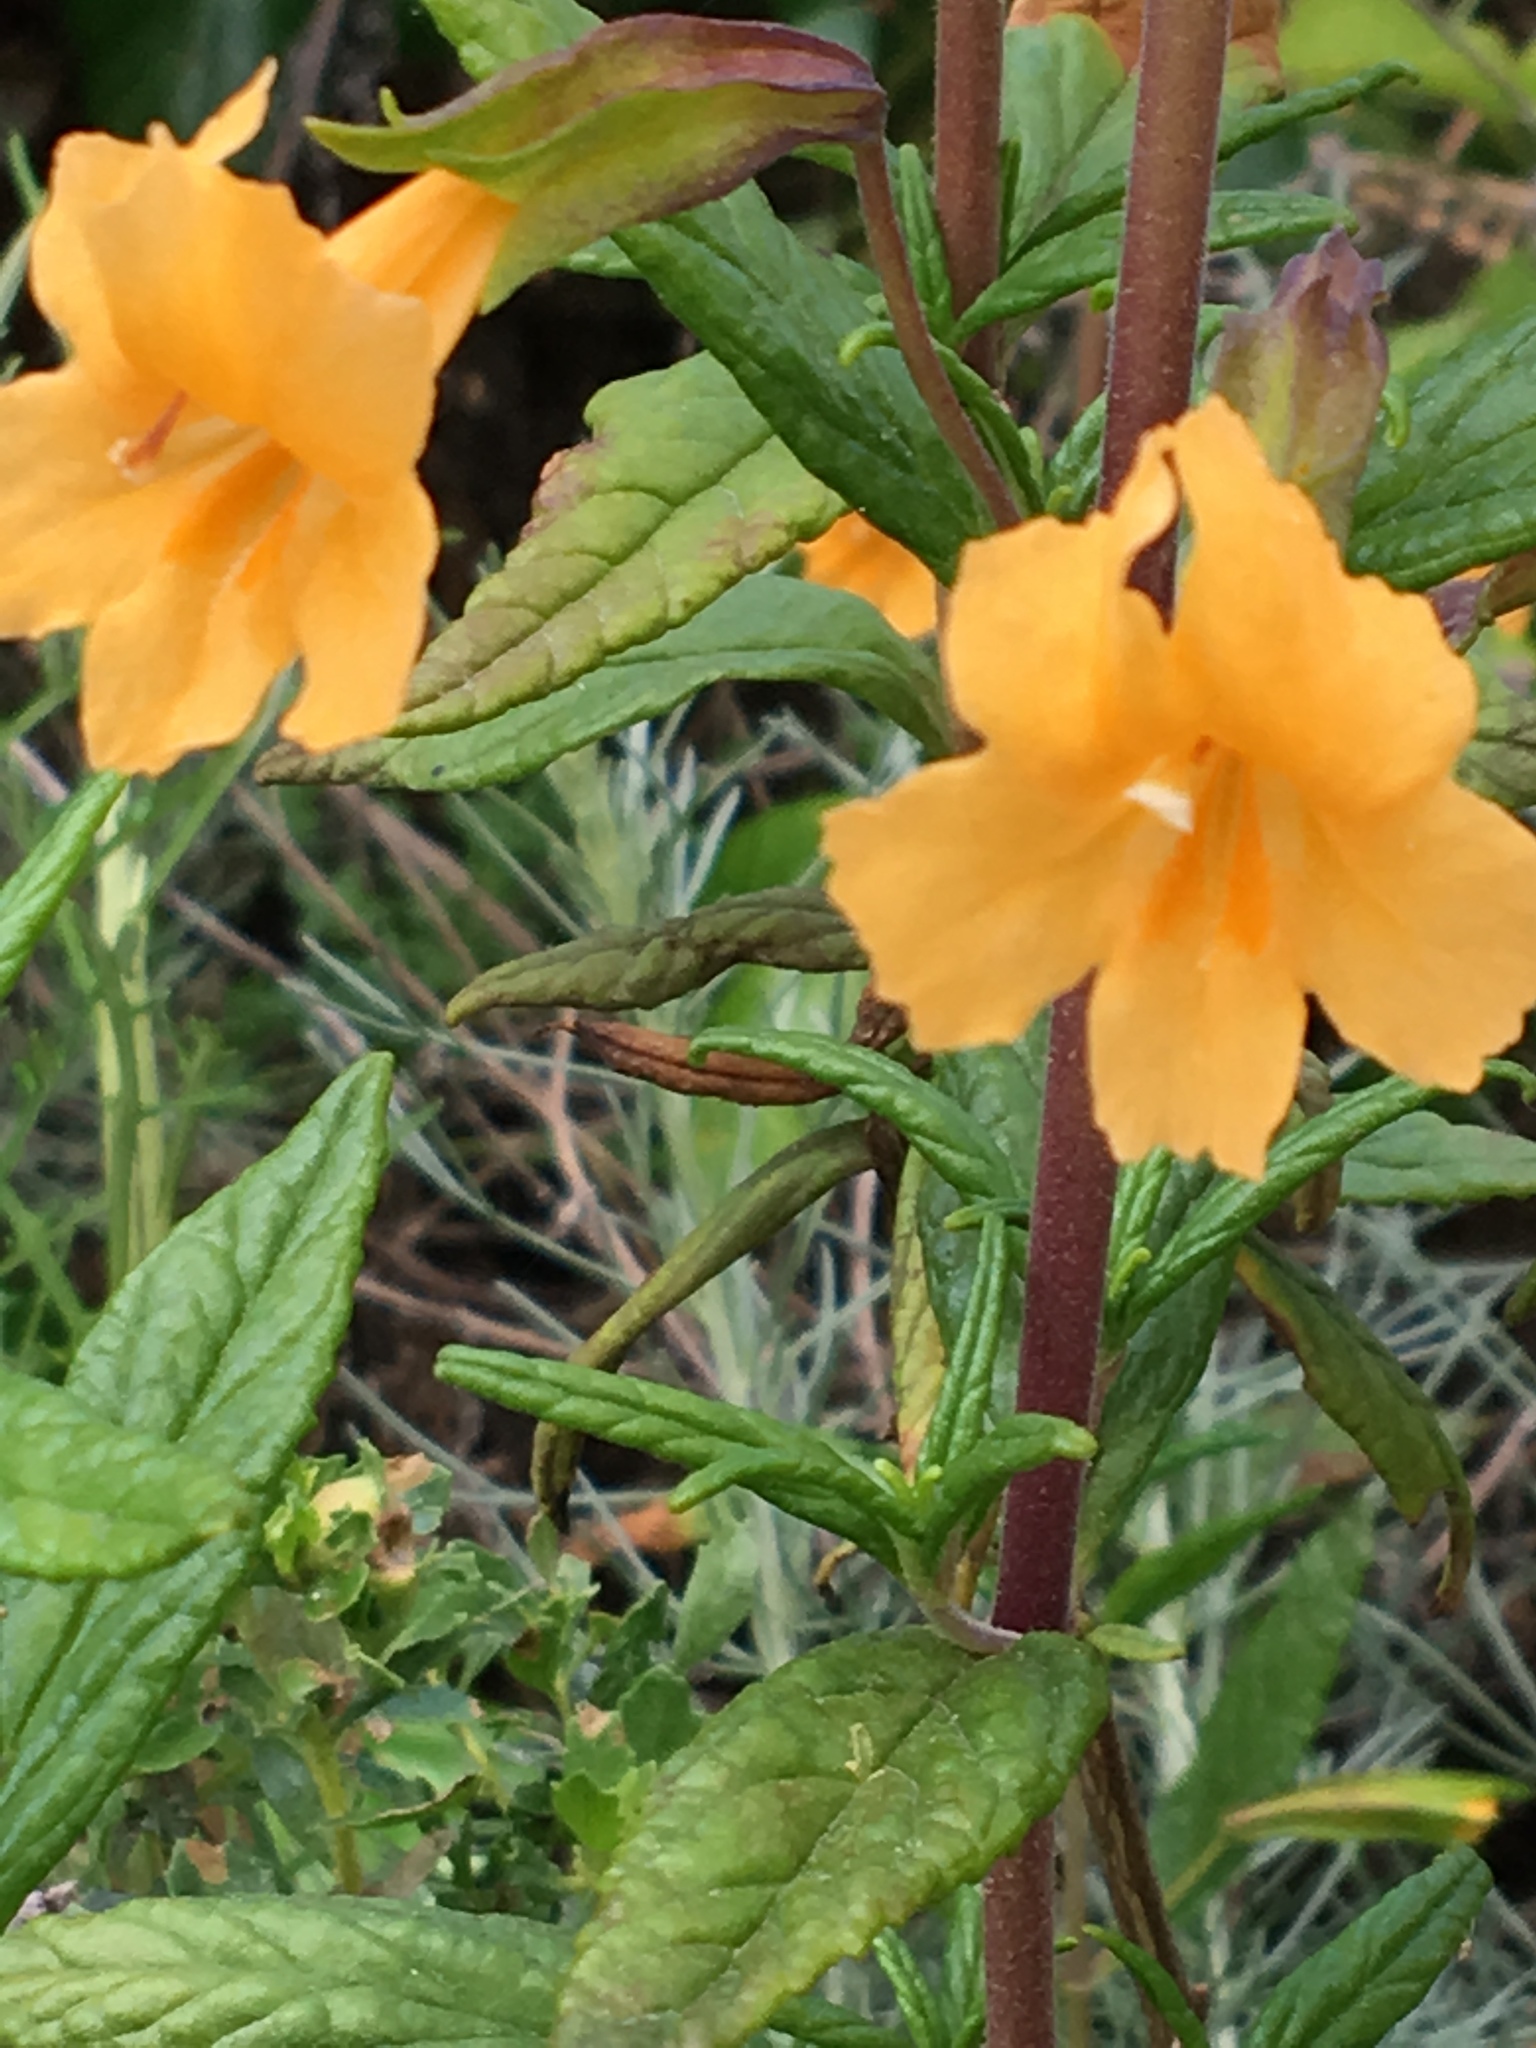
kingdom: Plantae
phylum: Tracheophyta
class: Magnoliopsida
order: Lamiales
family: Phrymaceae
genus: Diplacus
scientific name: Diplacus aurantiacus
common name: Bush monkey-flower
